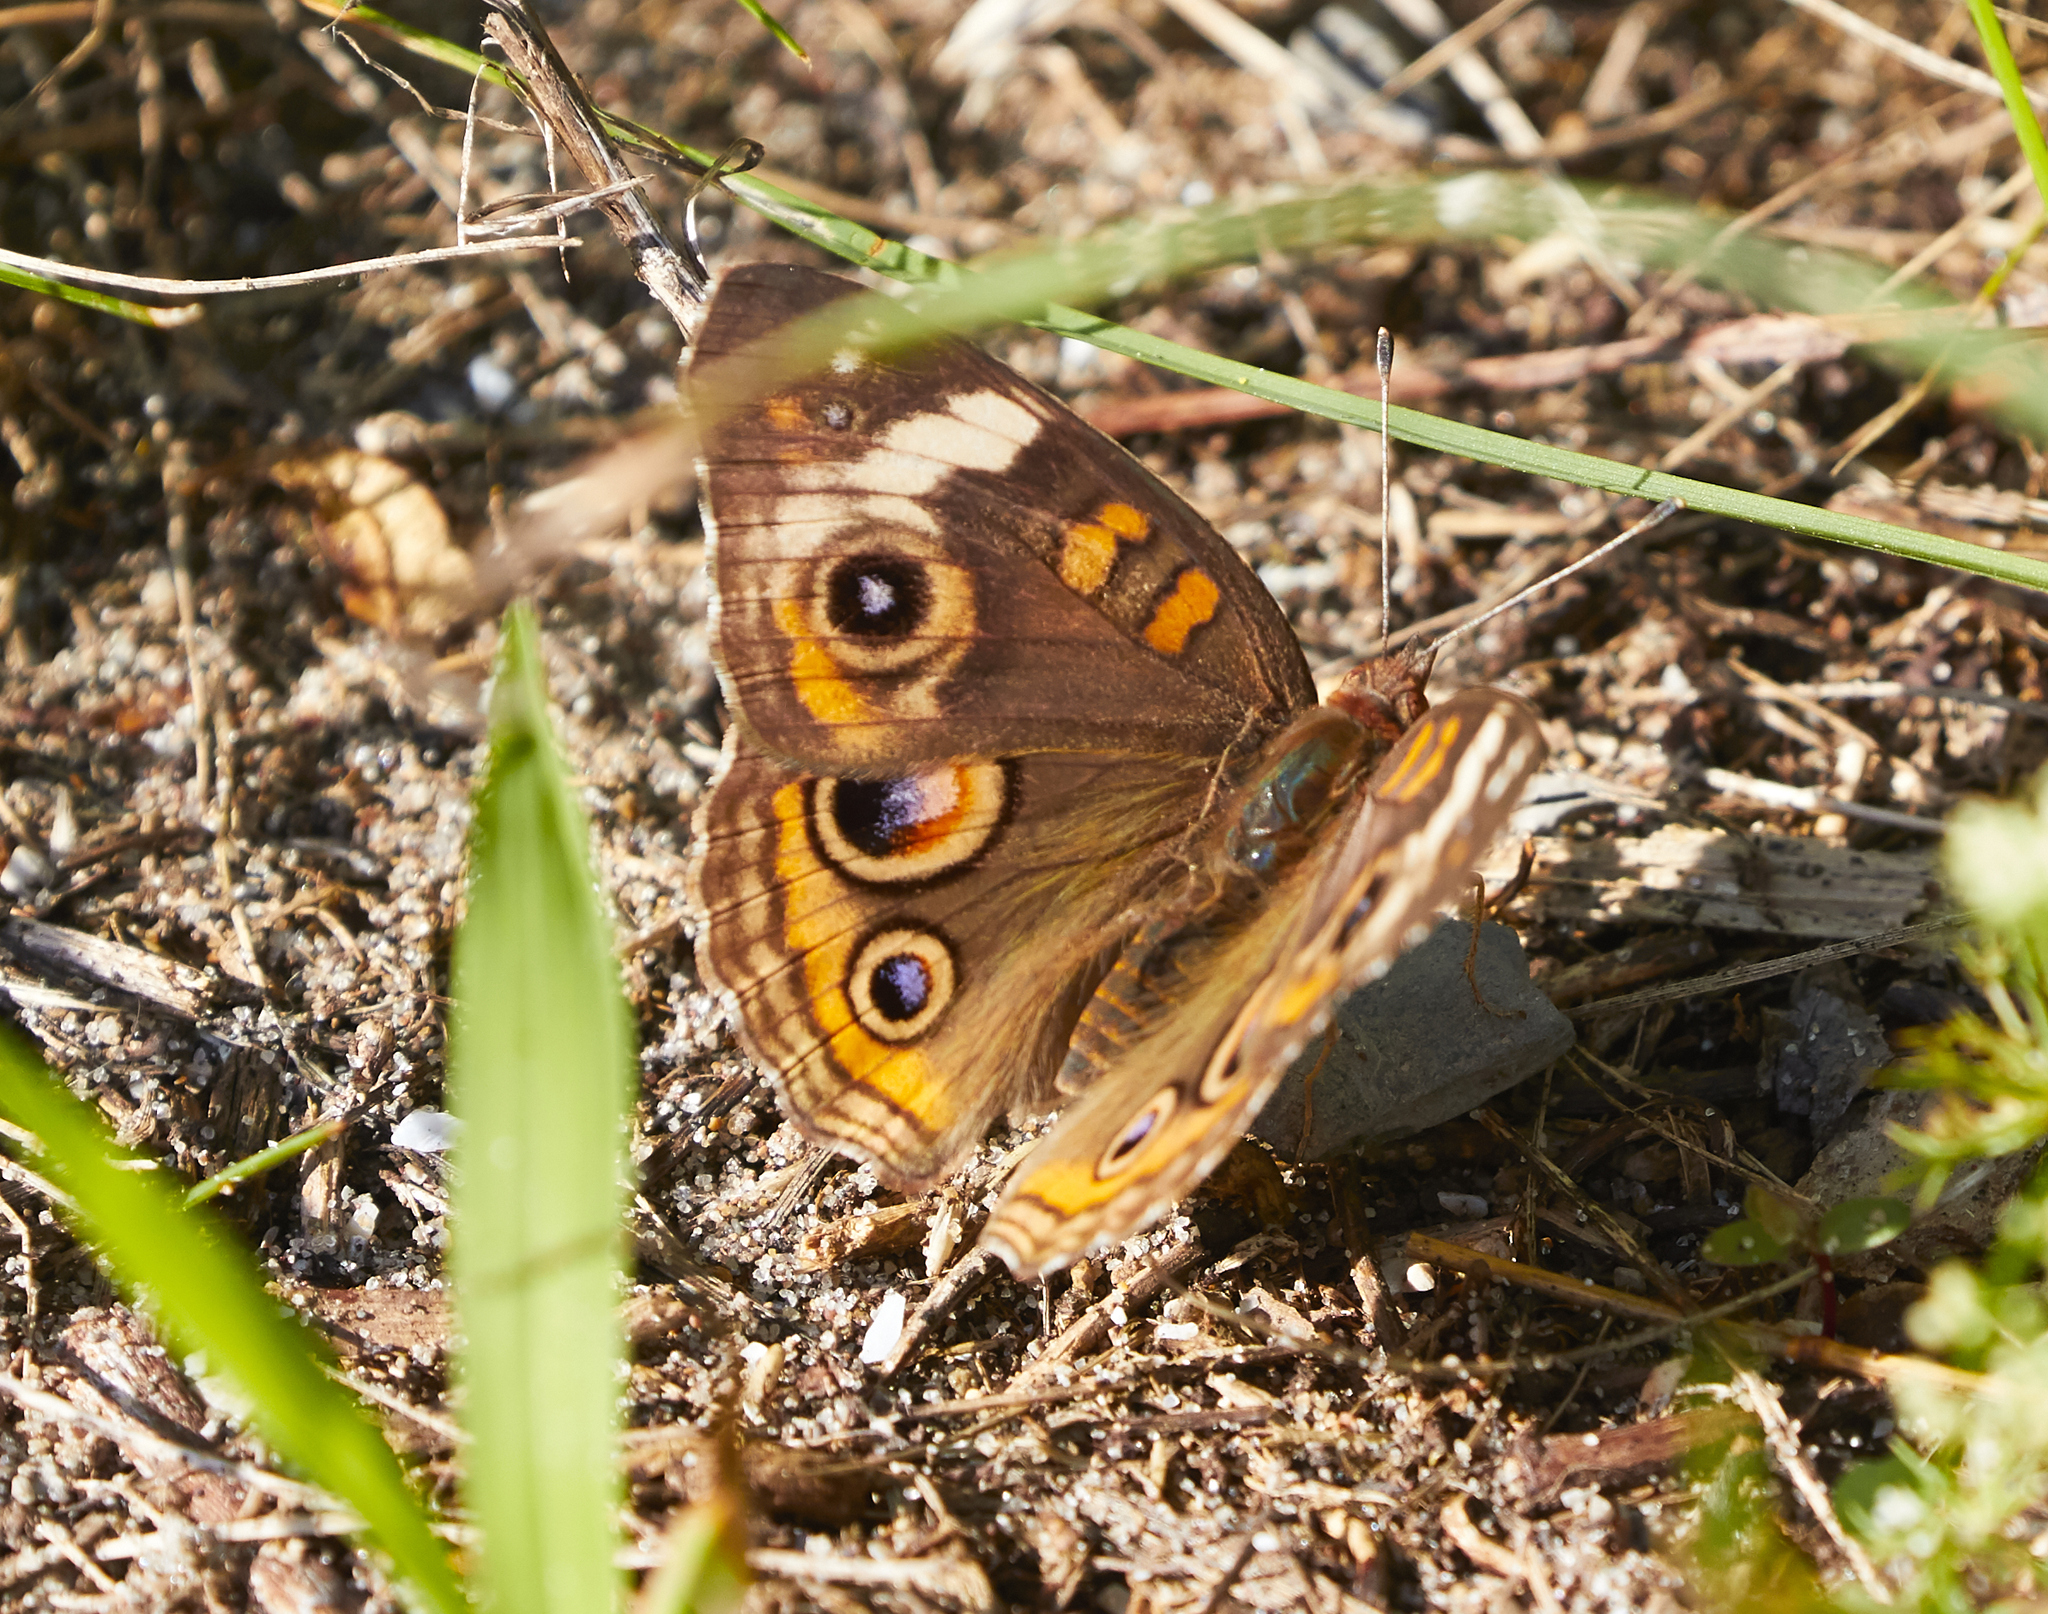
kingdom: Animalia
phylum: Arthropoda
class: Insecta
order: Lepidoptera
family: Nymphalidae
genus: Junonia
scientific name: Junonia coenia
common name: Common buckeye
